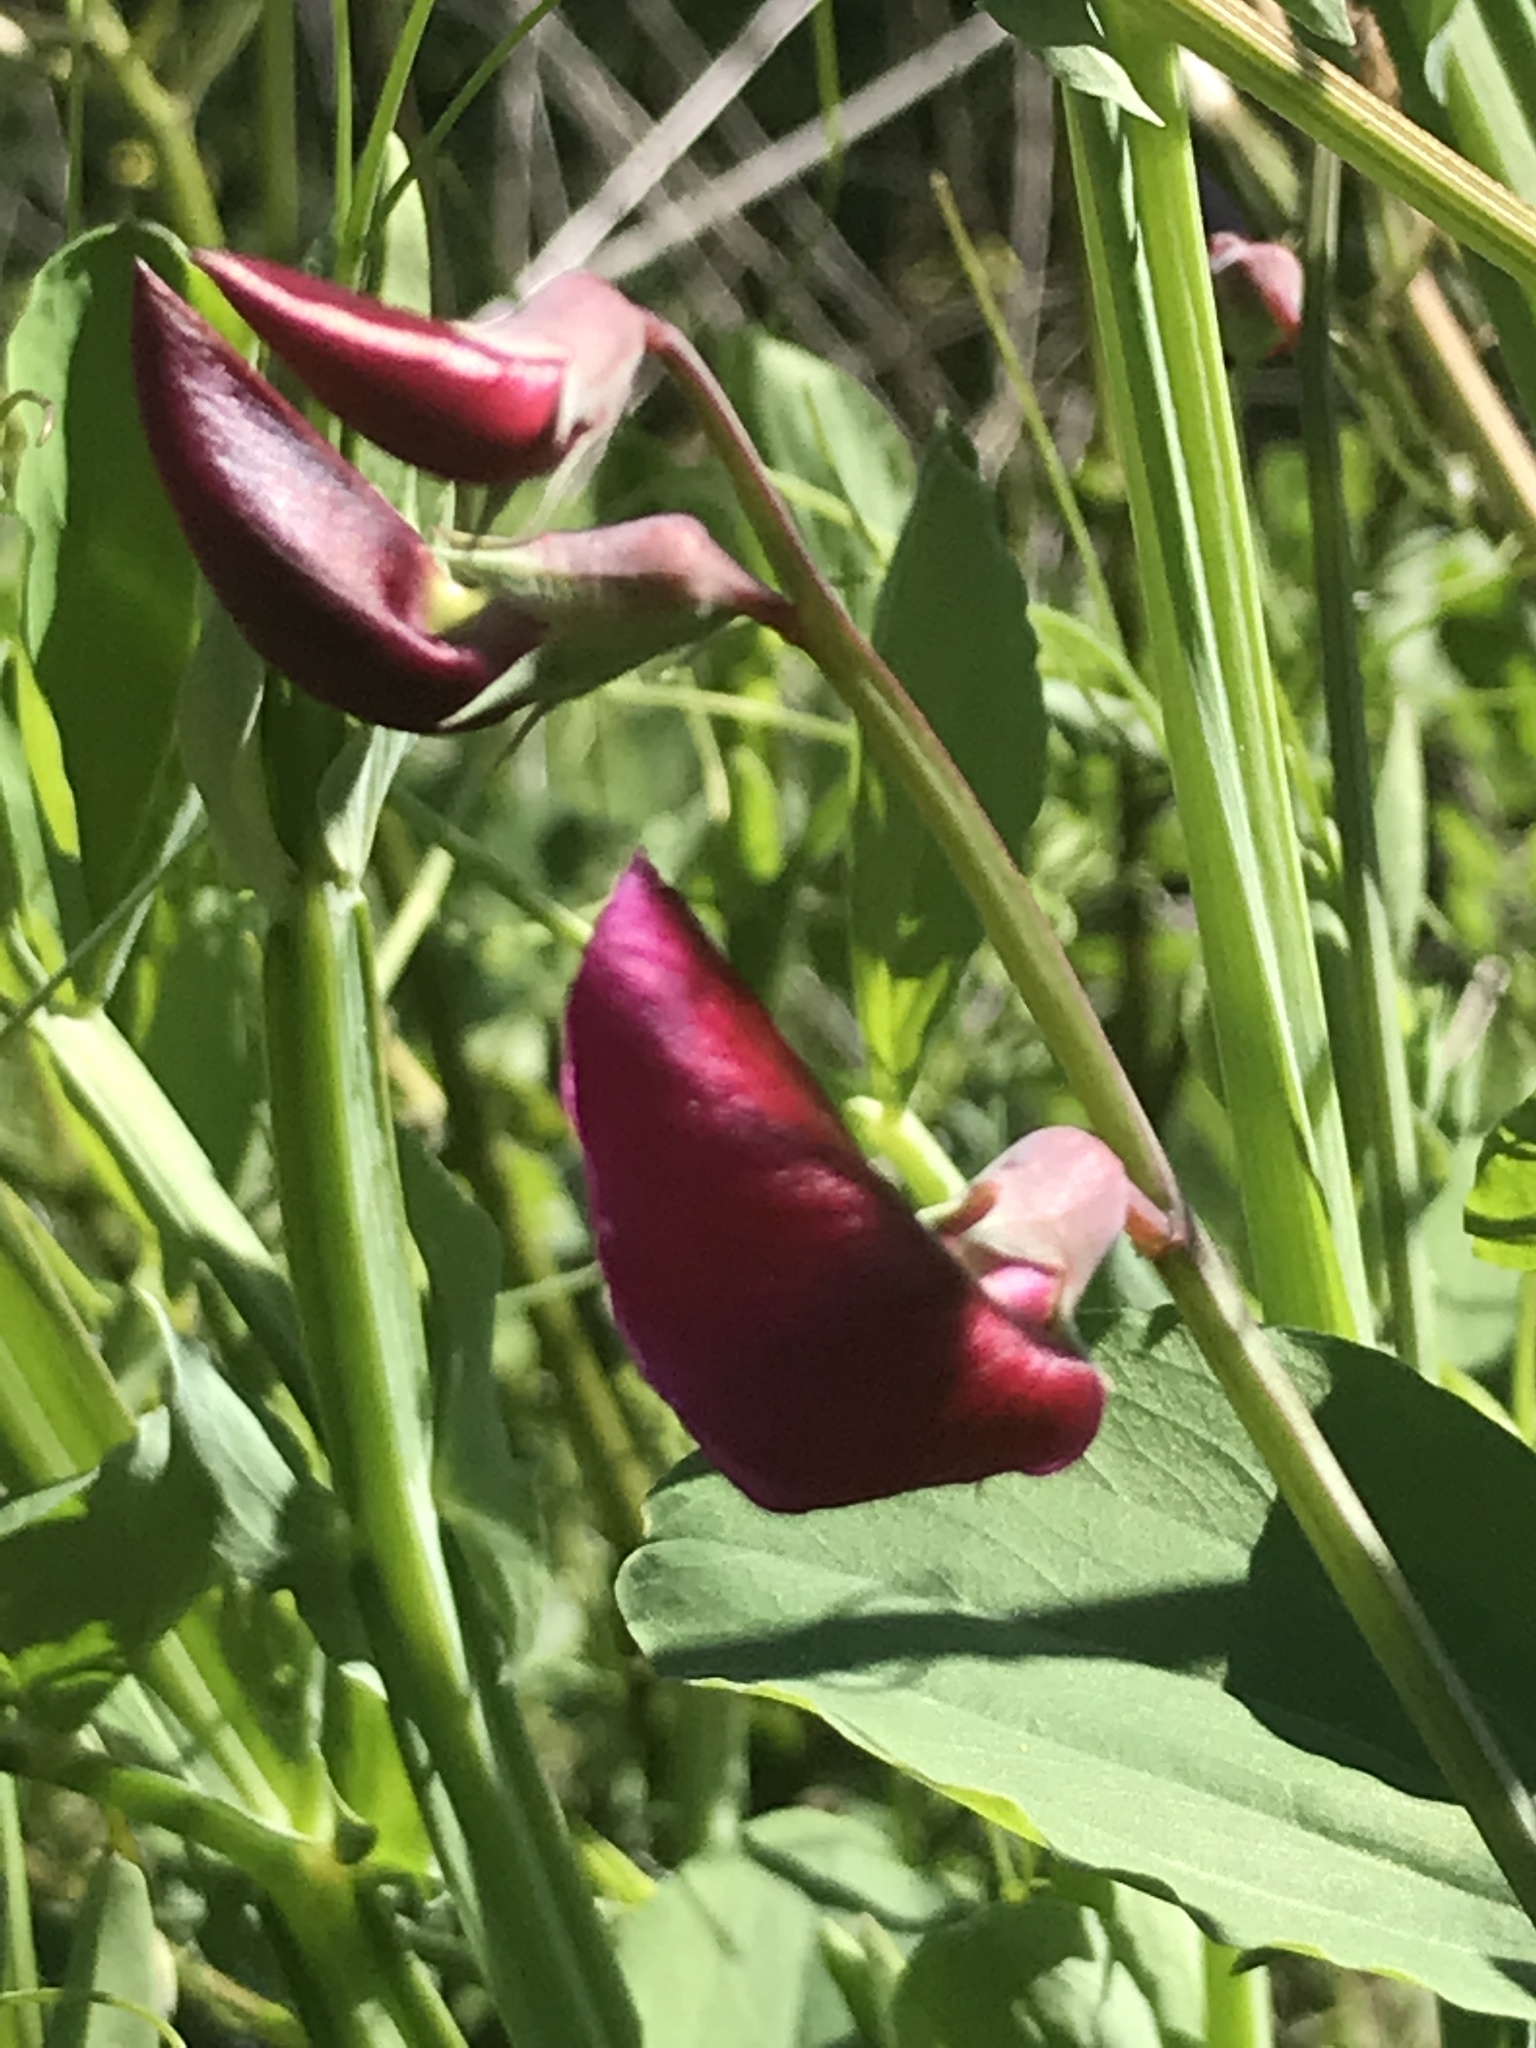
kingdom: Plantae
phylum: Tracheophyta
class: Magnoliopsida
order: Fabales
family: Fabaceae
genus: Lathyrus
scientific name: Lathyrus tingitanus
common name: Tangier pea
